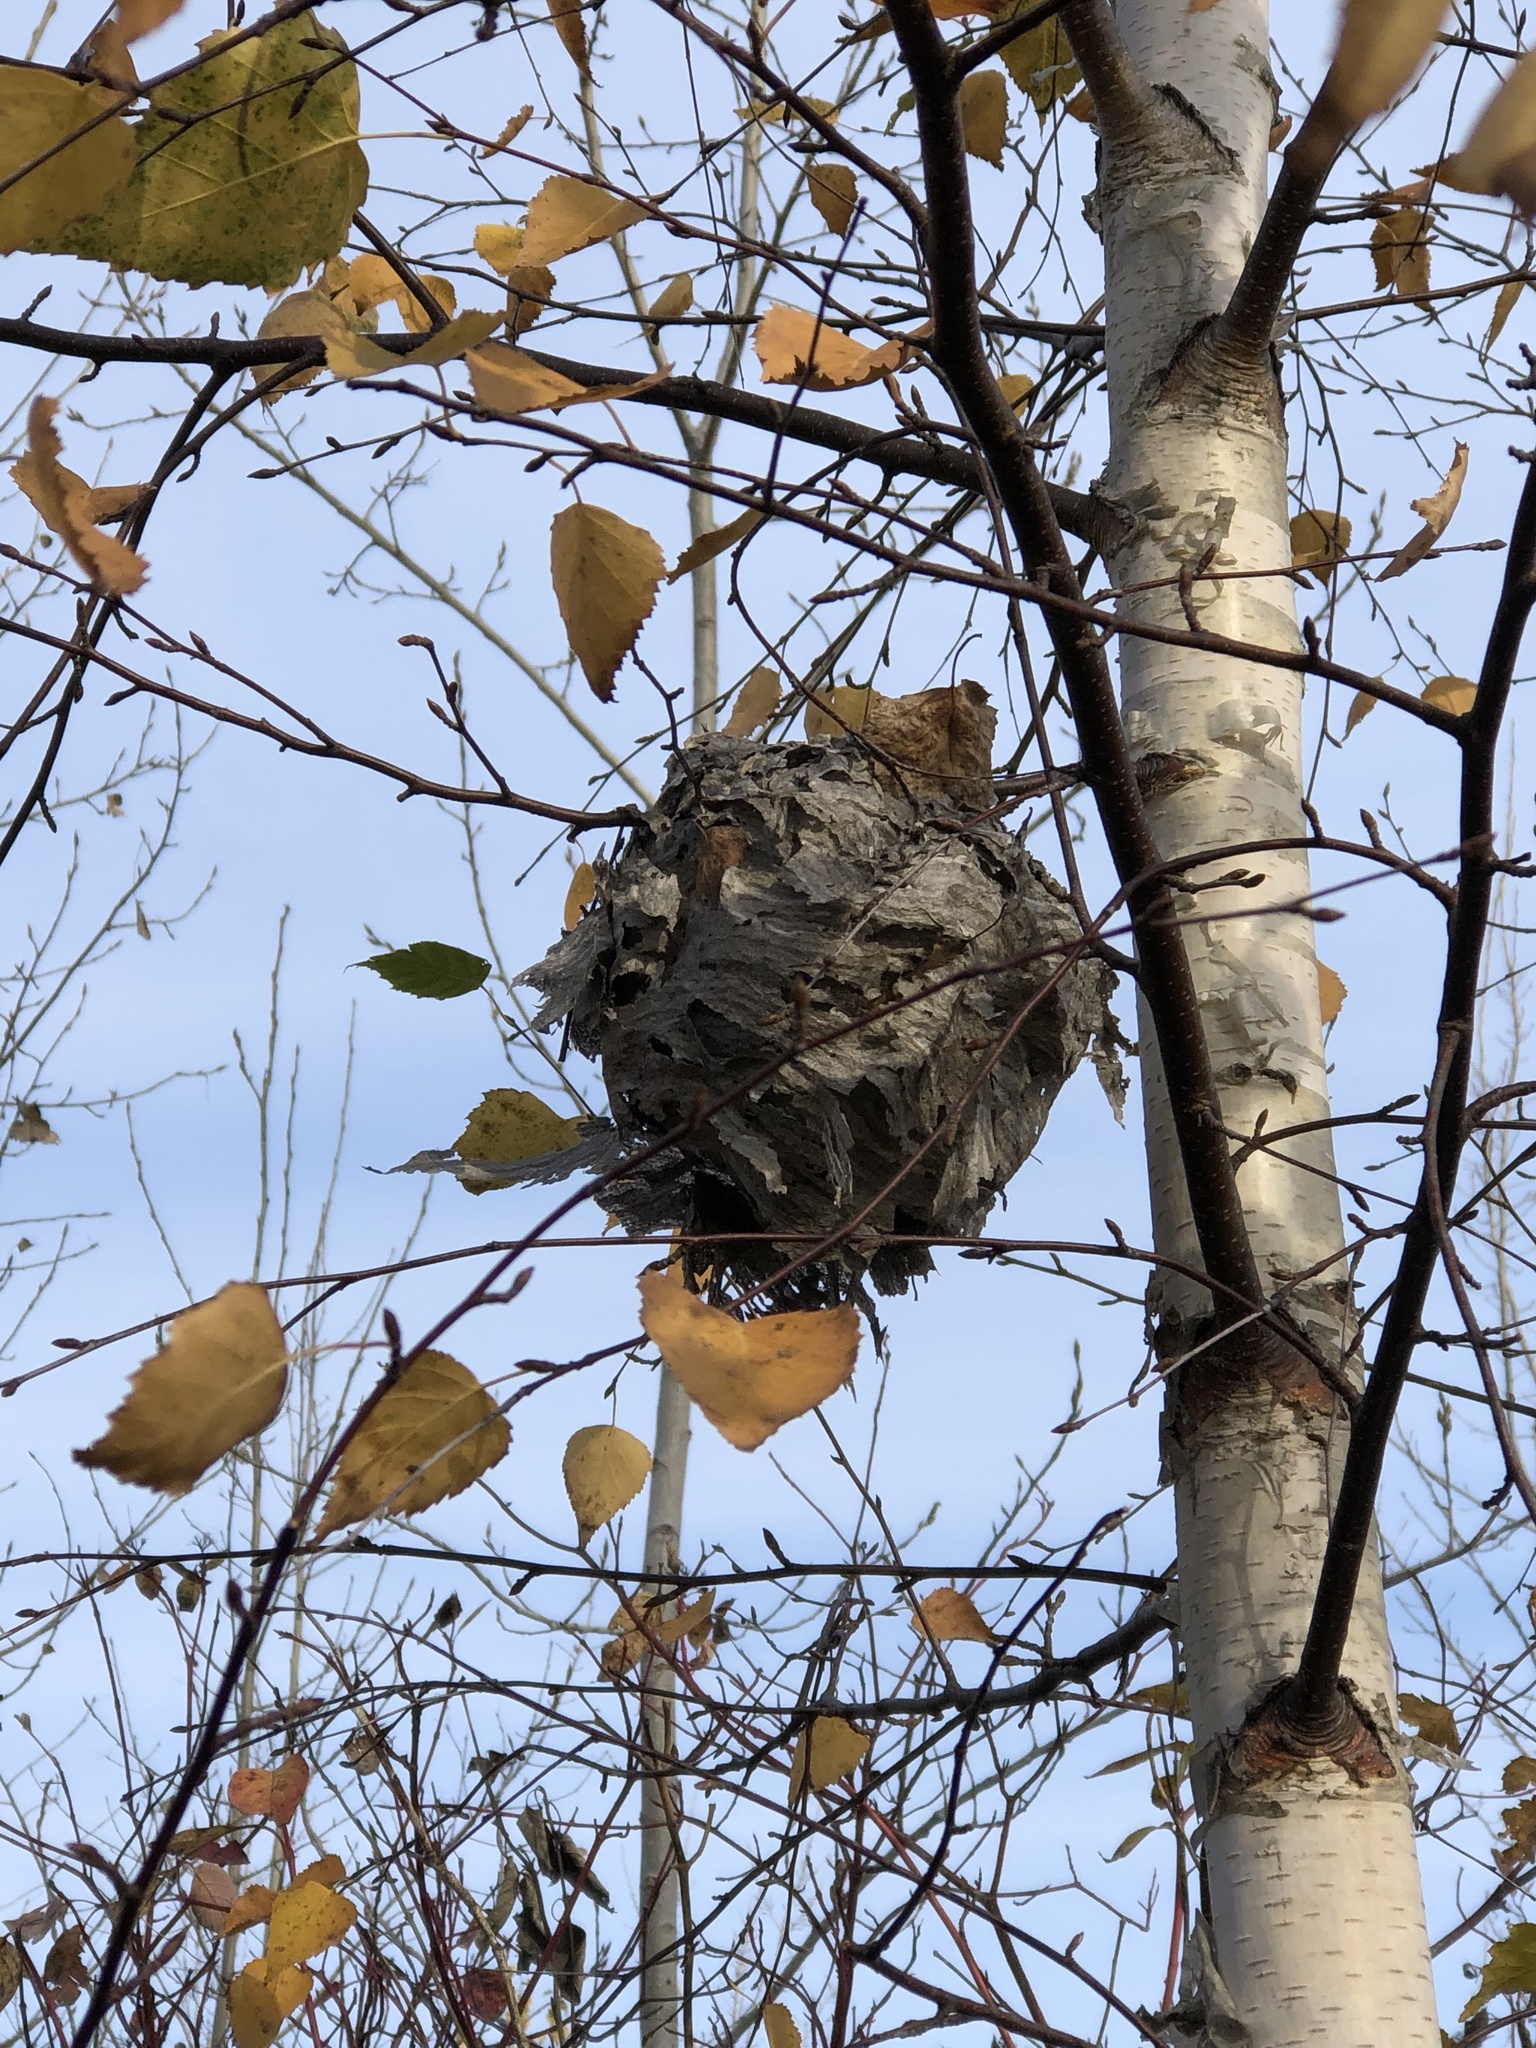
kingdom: Animalia
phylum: Arthropoda
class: Insecta
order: Hymenoptera
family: Vespidae
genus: Dolichovespula
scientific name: Dolichovespula
